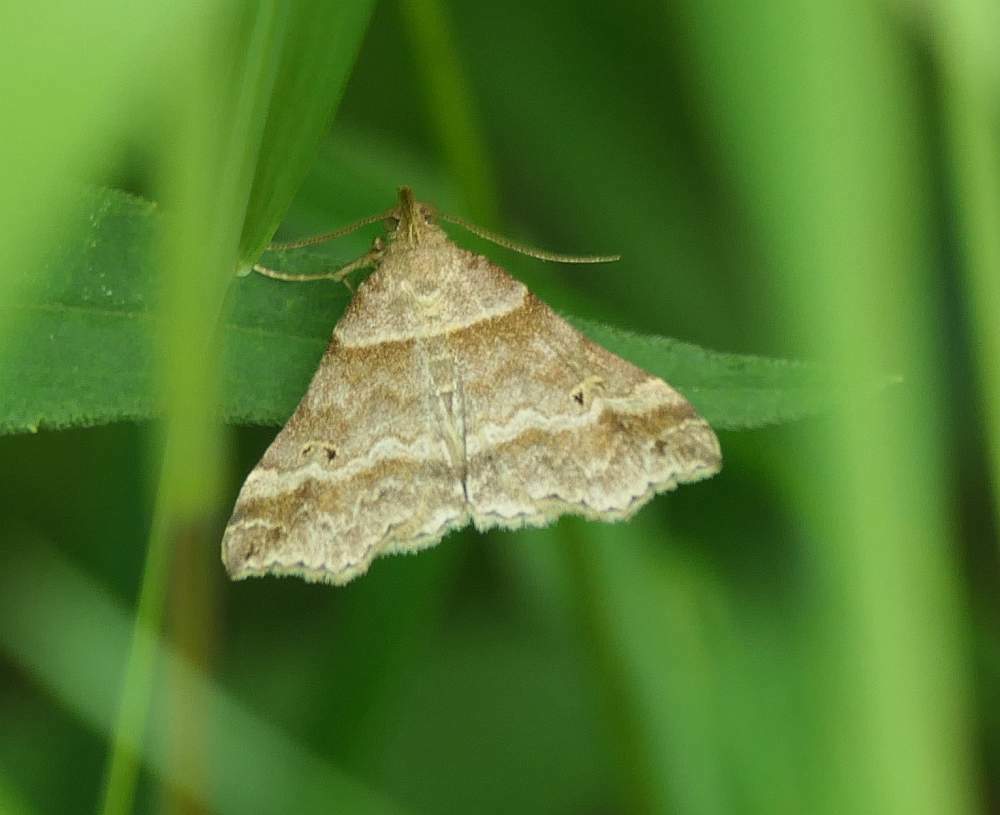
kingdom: Animalia
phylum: Arthropoda
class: Insecta
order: Lepidoptera
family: Erebidae
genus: Phaeolita
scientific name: Phaeolita pyramusalis
